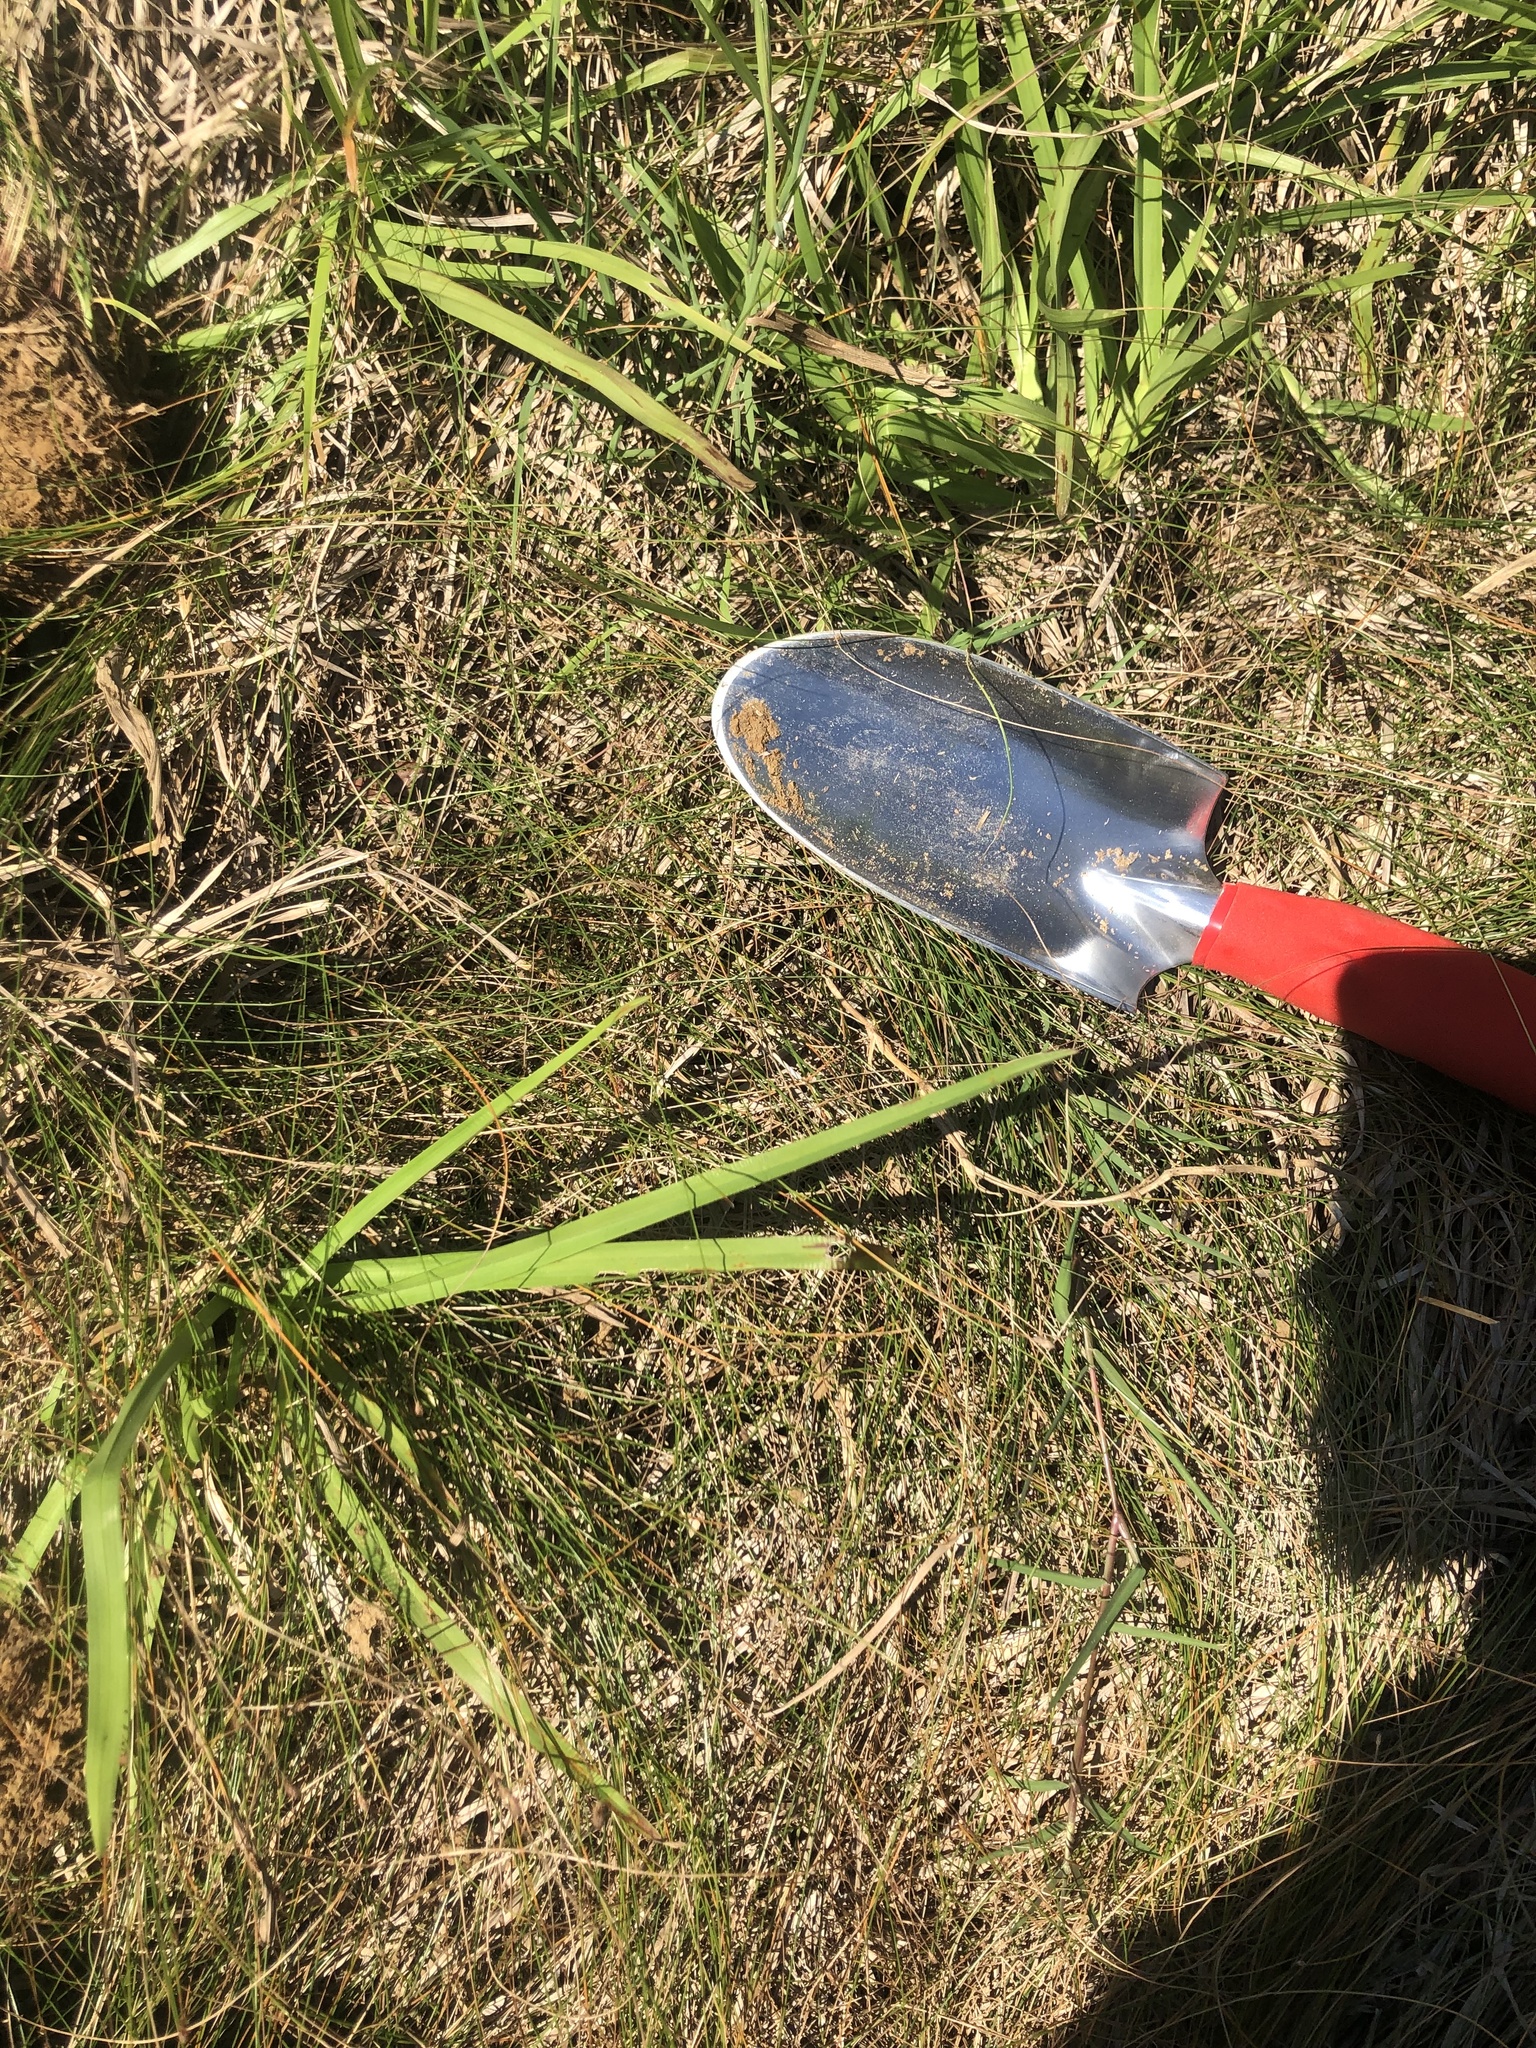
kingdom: Plantae
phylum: Tracheophyta
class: Liliopsida
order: Poales
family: Cyperaceae
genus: Eleocharis
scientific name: Eleocharis tenuis
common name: Dog's hair
